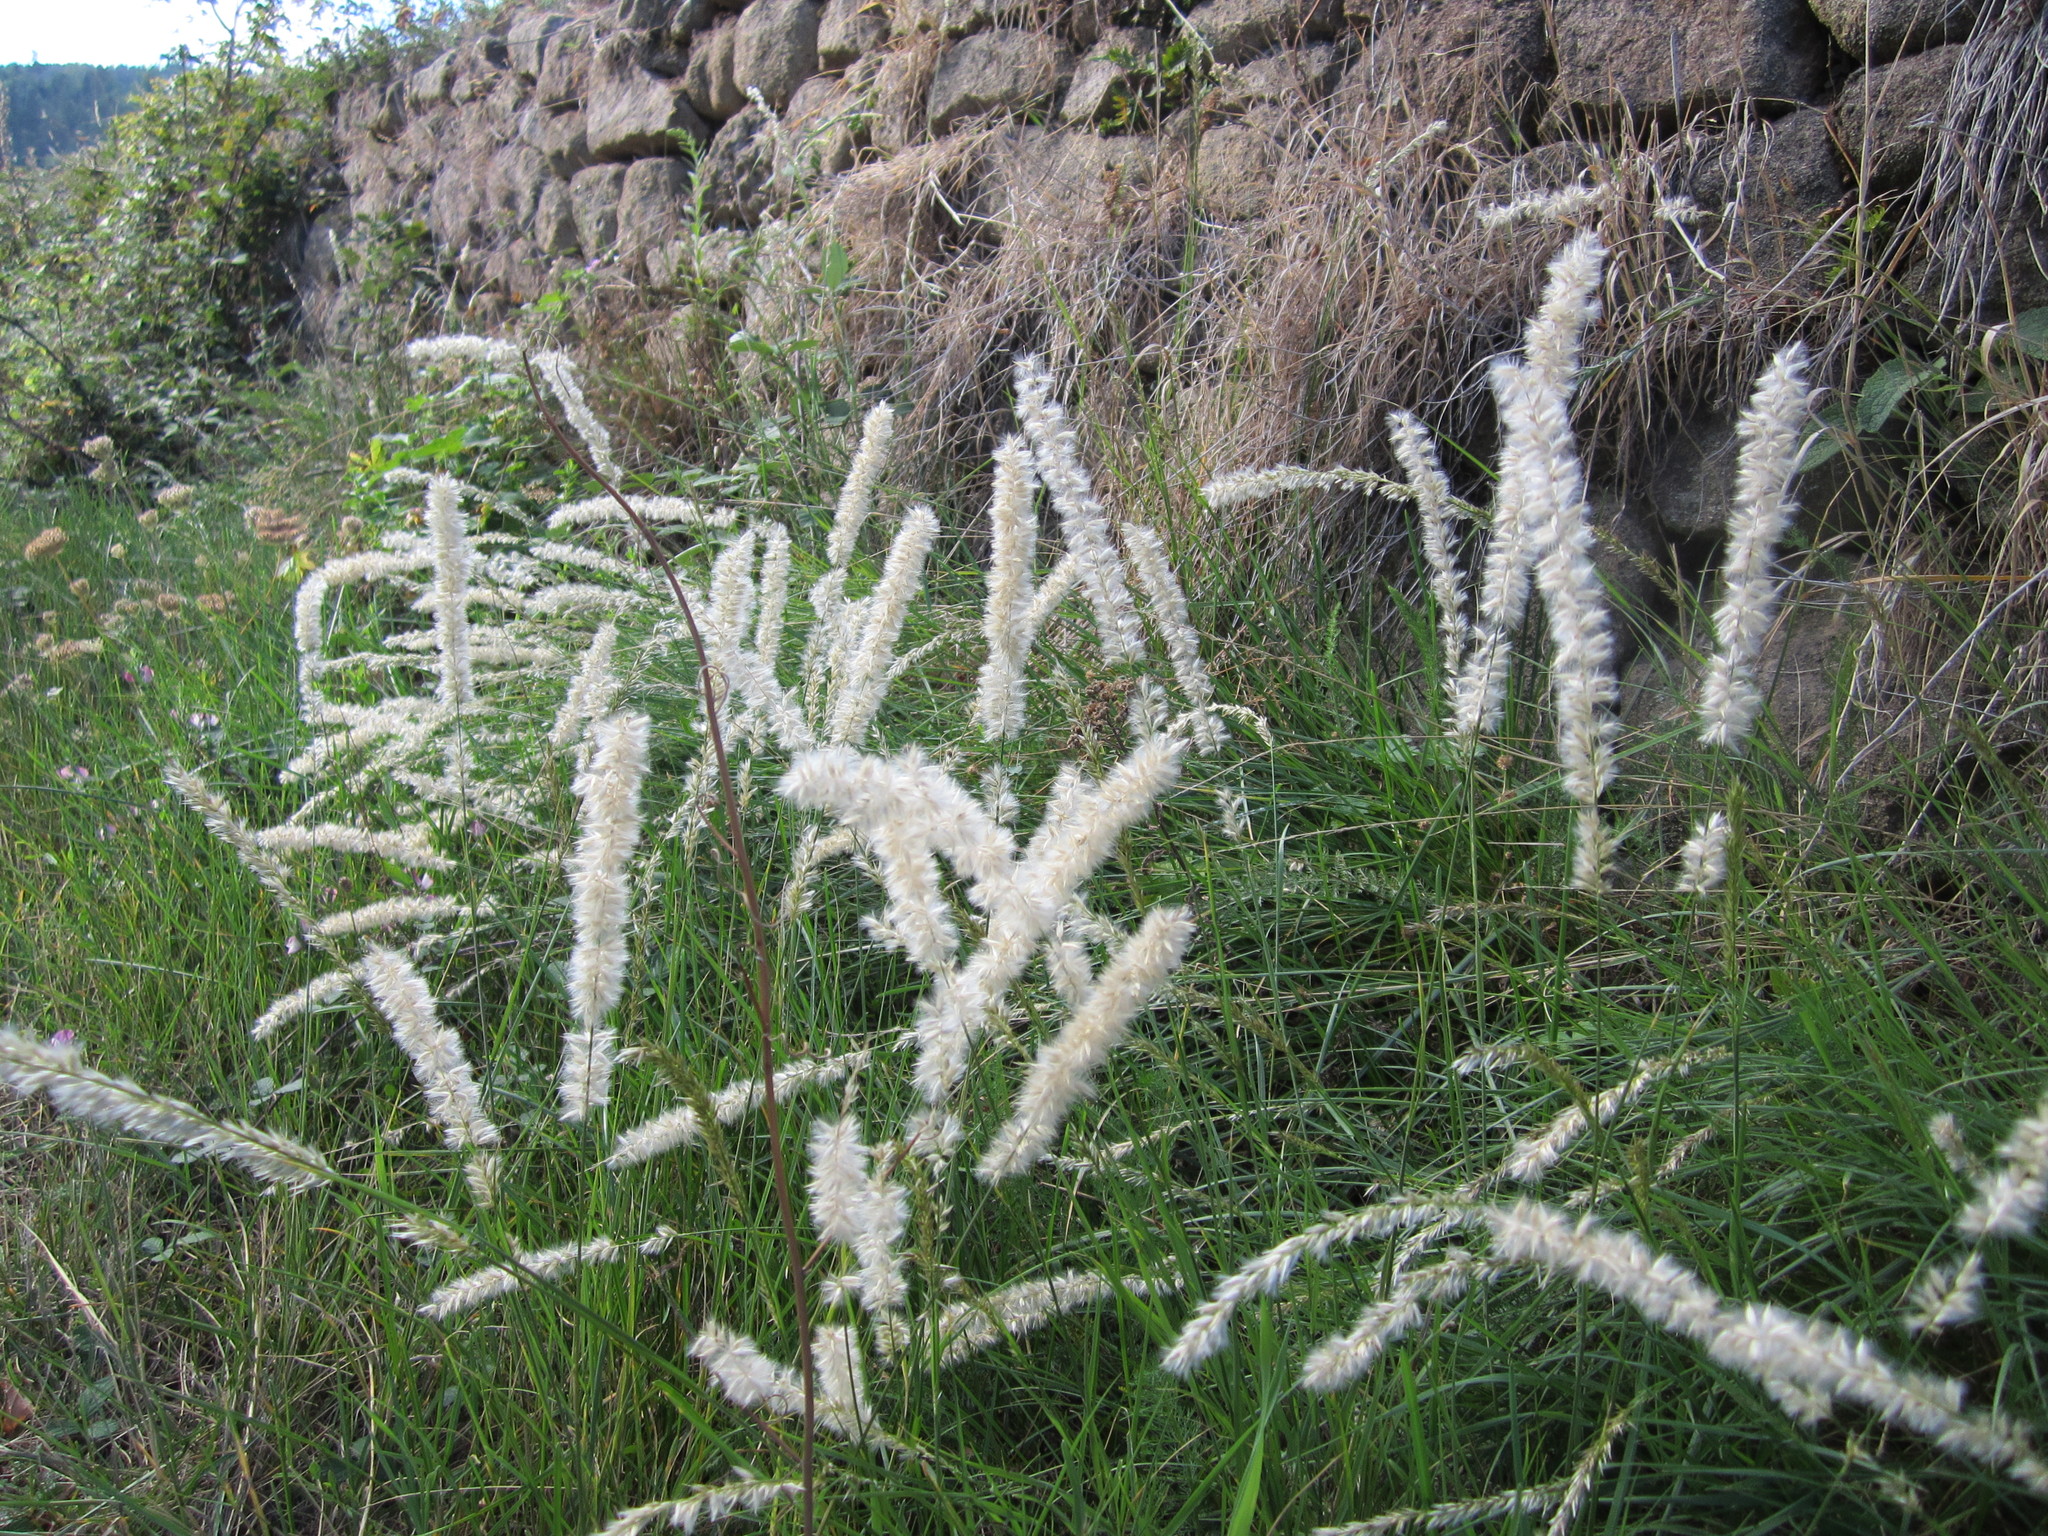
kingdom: Plantae
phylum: Tracheophyta
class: Liliopsida
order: Poales
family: Poaceae
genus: Melica
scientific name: Melica ciliata
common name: Hairy melicgrass
